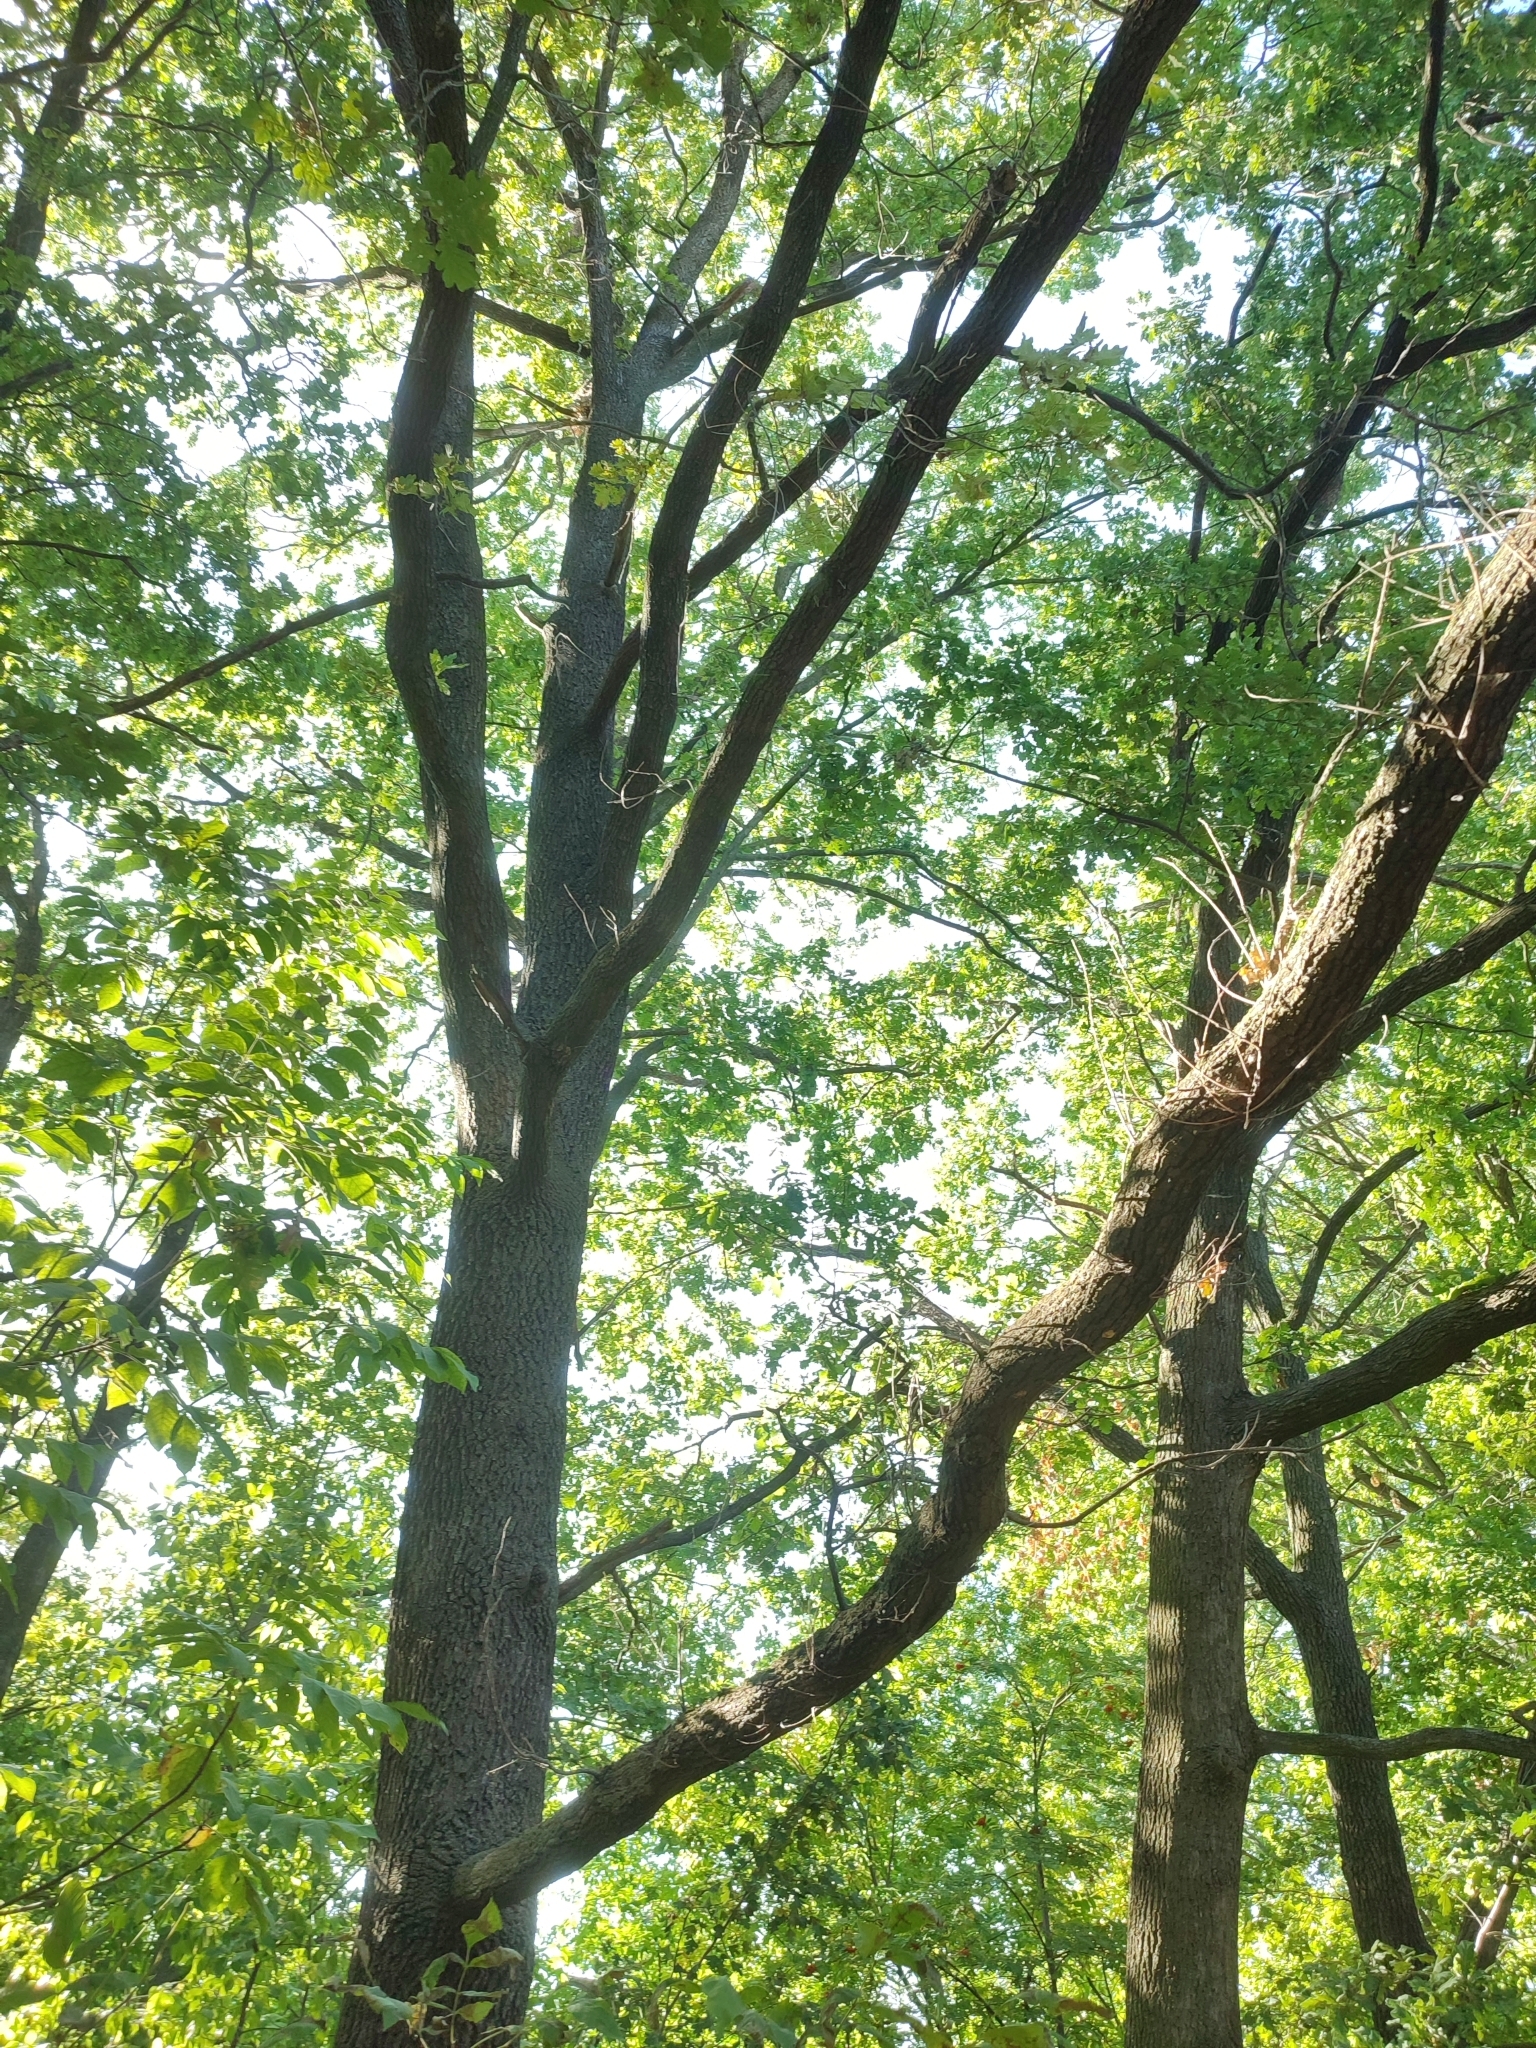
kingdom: Plantae
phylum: Tracheophyta
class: Magnoliopsida
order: Fagales
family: Fagaceae
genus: Quercus
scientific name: Quercus robur
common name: Pedunculate oak
